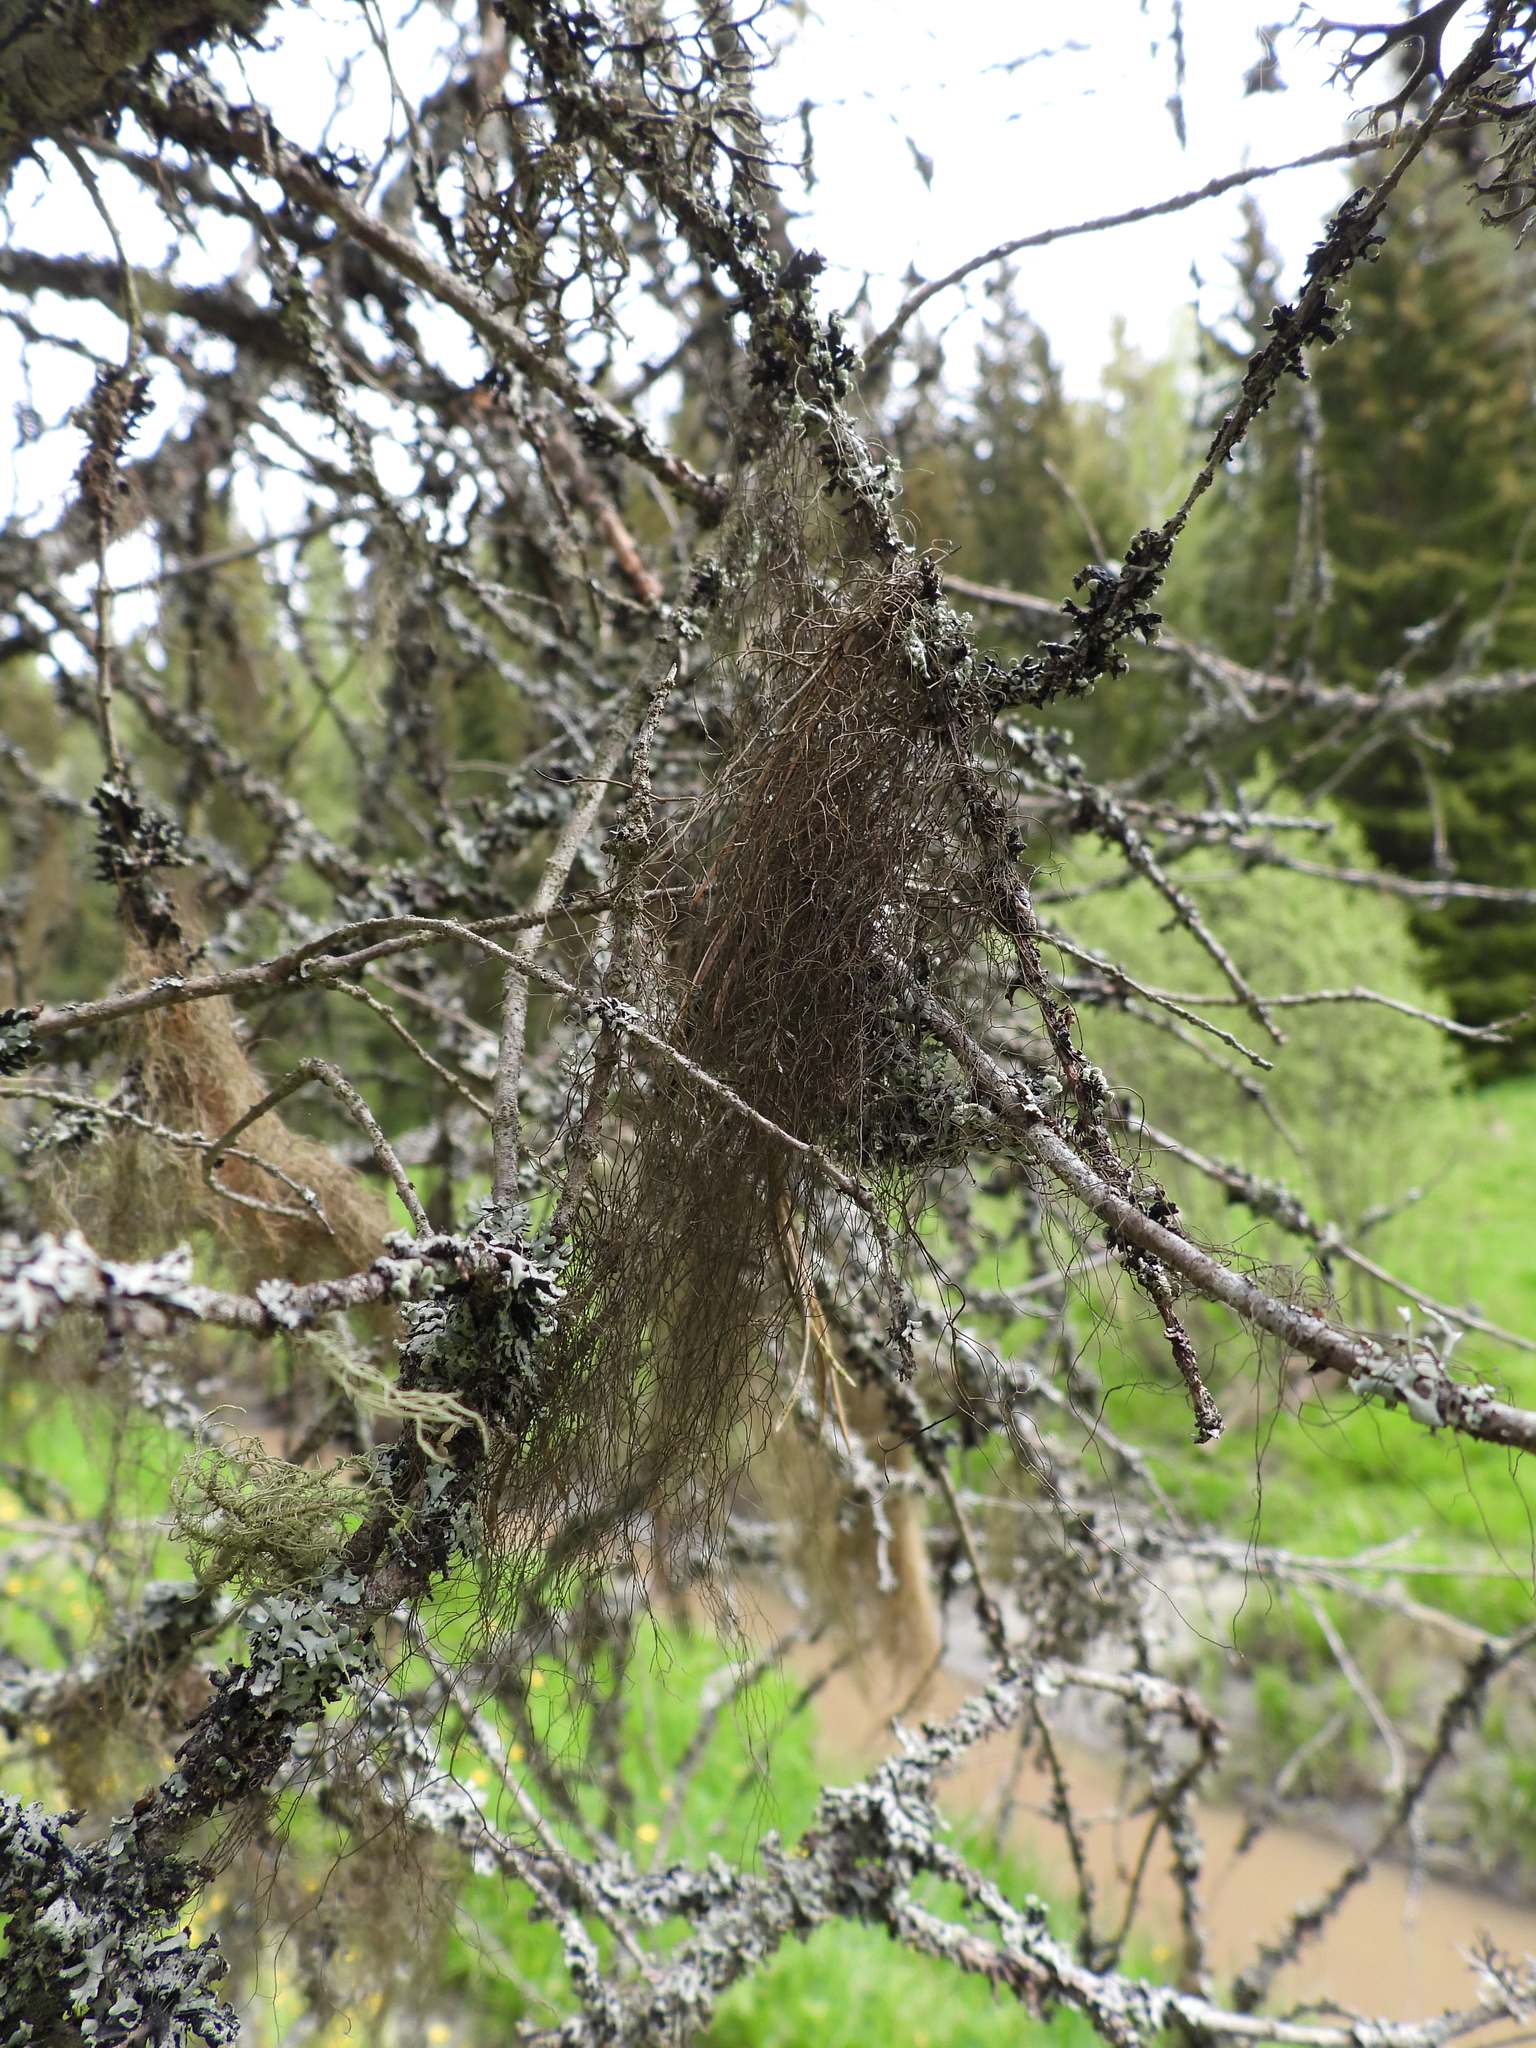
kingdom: Fungi
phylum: Ascomycota
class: Lecanoromycetes
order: Lecanorales
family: Parmeliaceae
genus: Bryoria
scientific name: Bryoria fuscescens
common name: Pale-footed horsehair lichen
